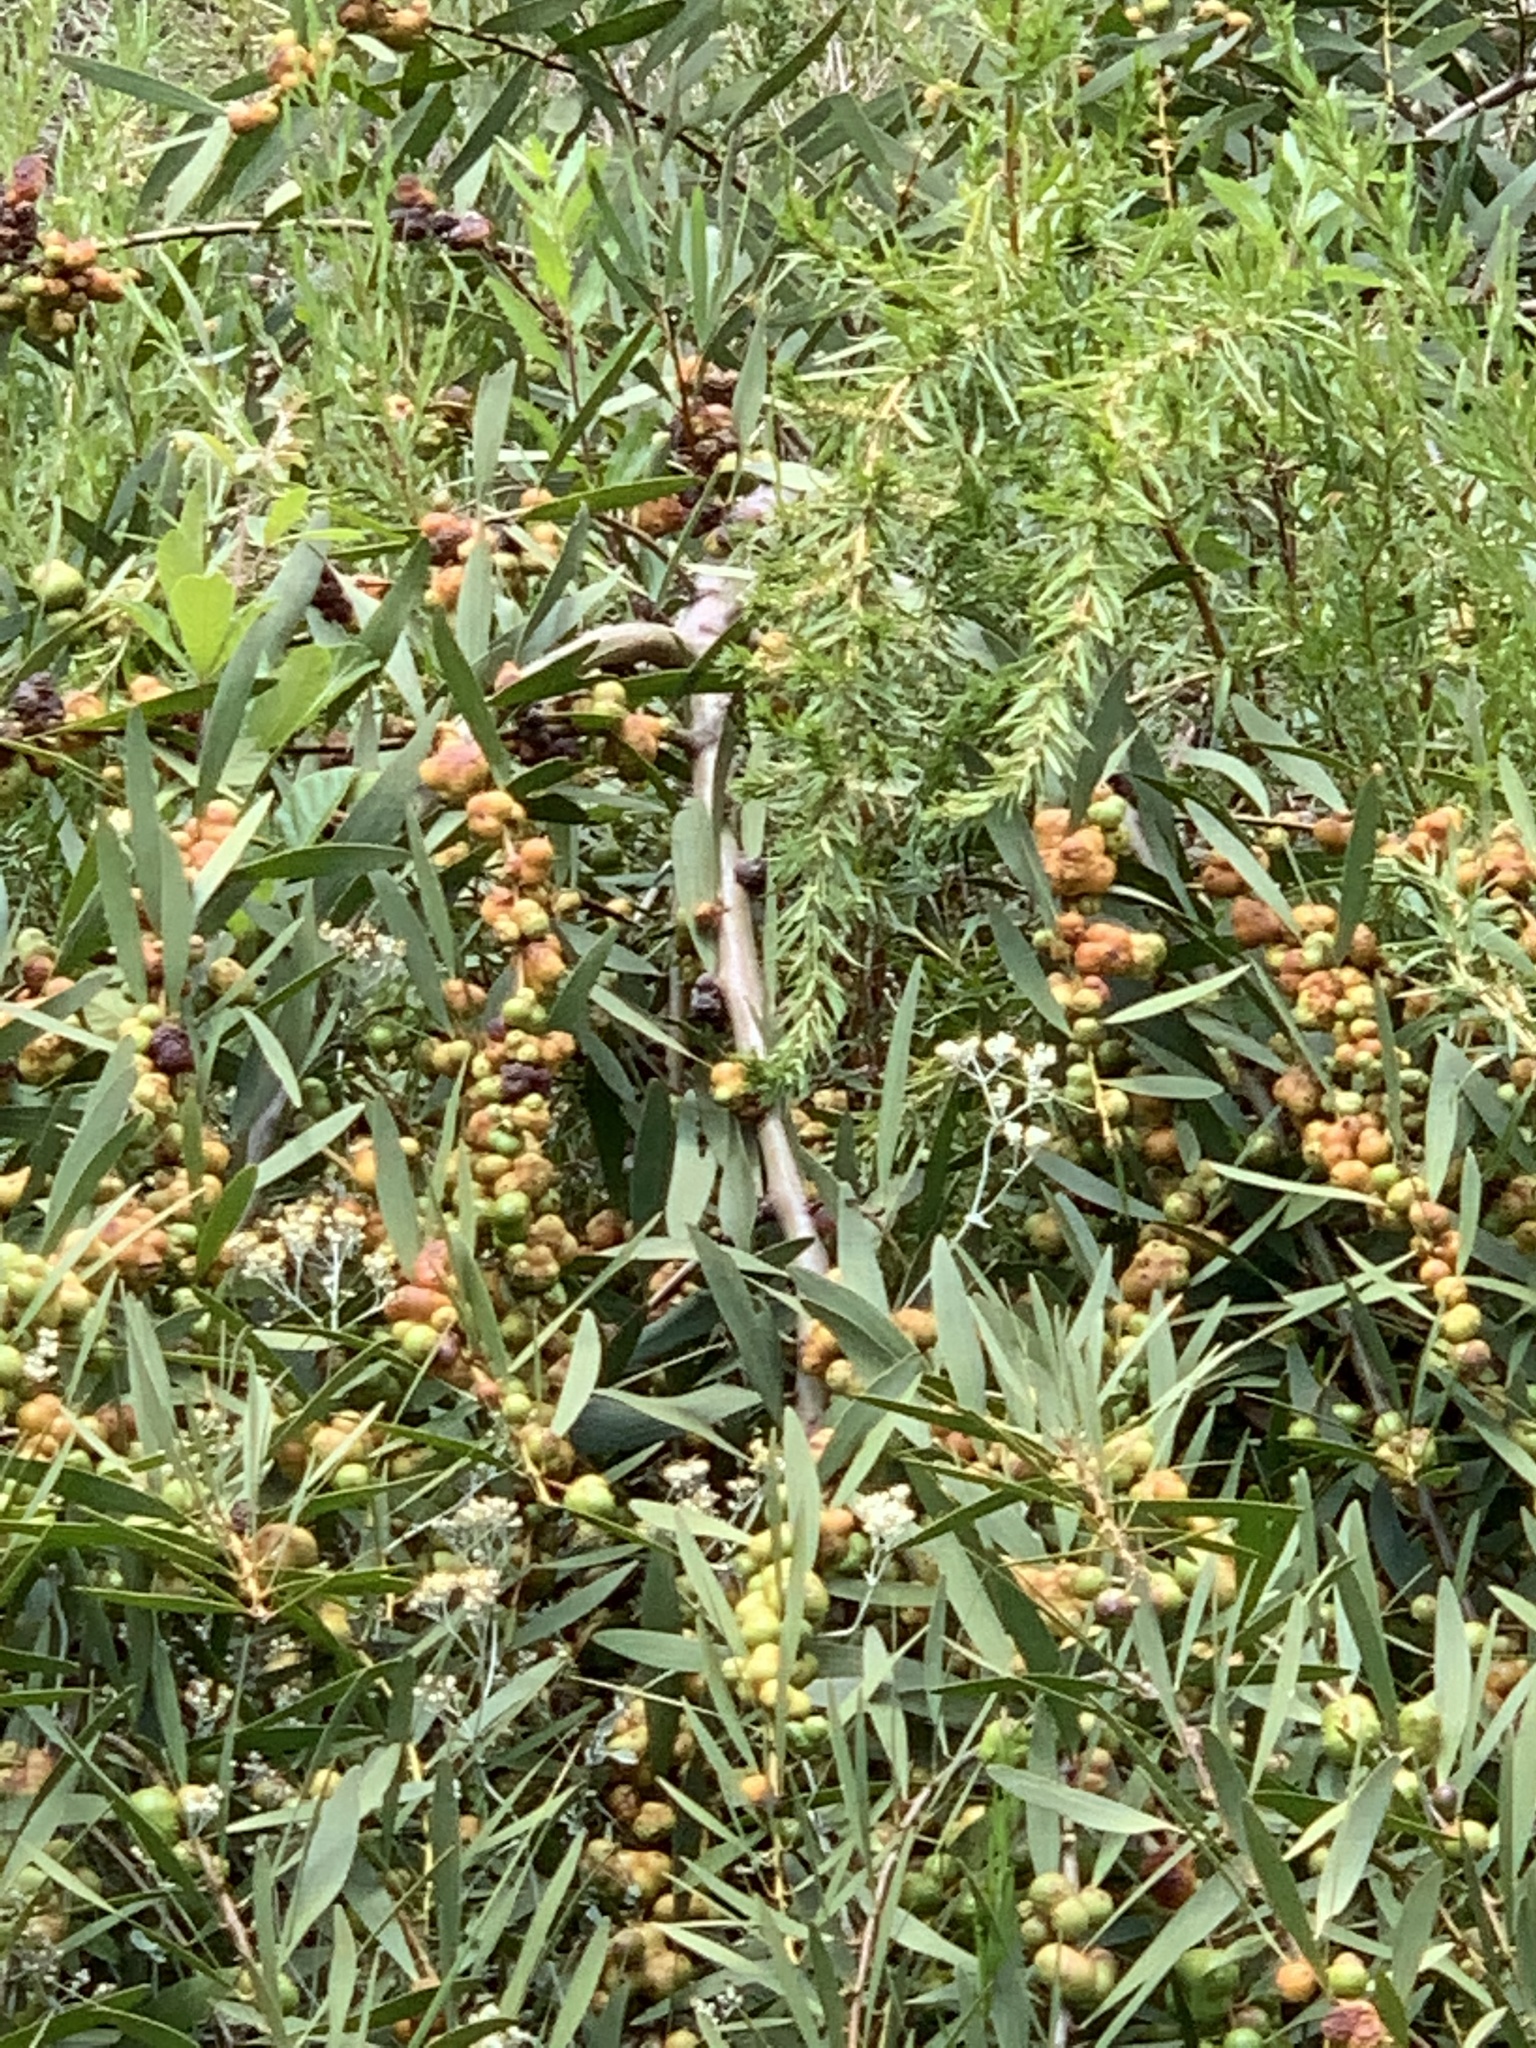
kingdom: Plantae
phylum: Tracheophyta
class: Magnoliopsida
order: Fabales
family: Fabaceae
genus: Acacia
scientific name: Acacia longifolia
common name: Sydney golden wattle
